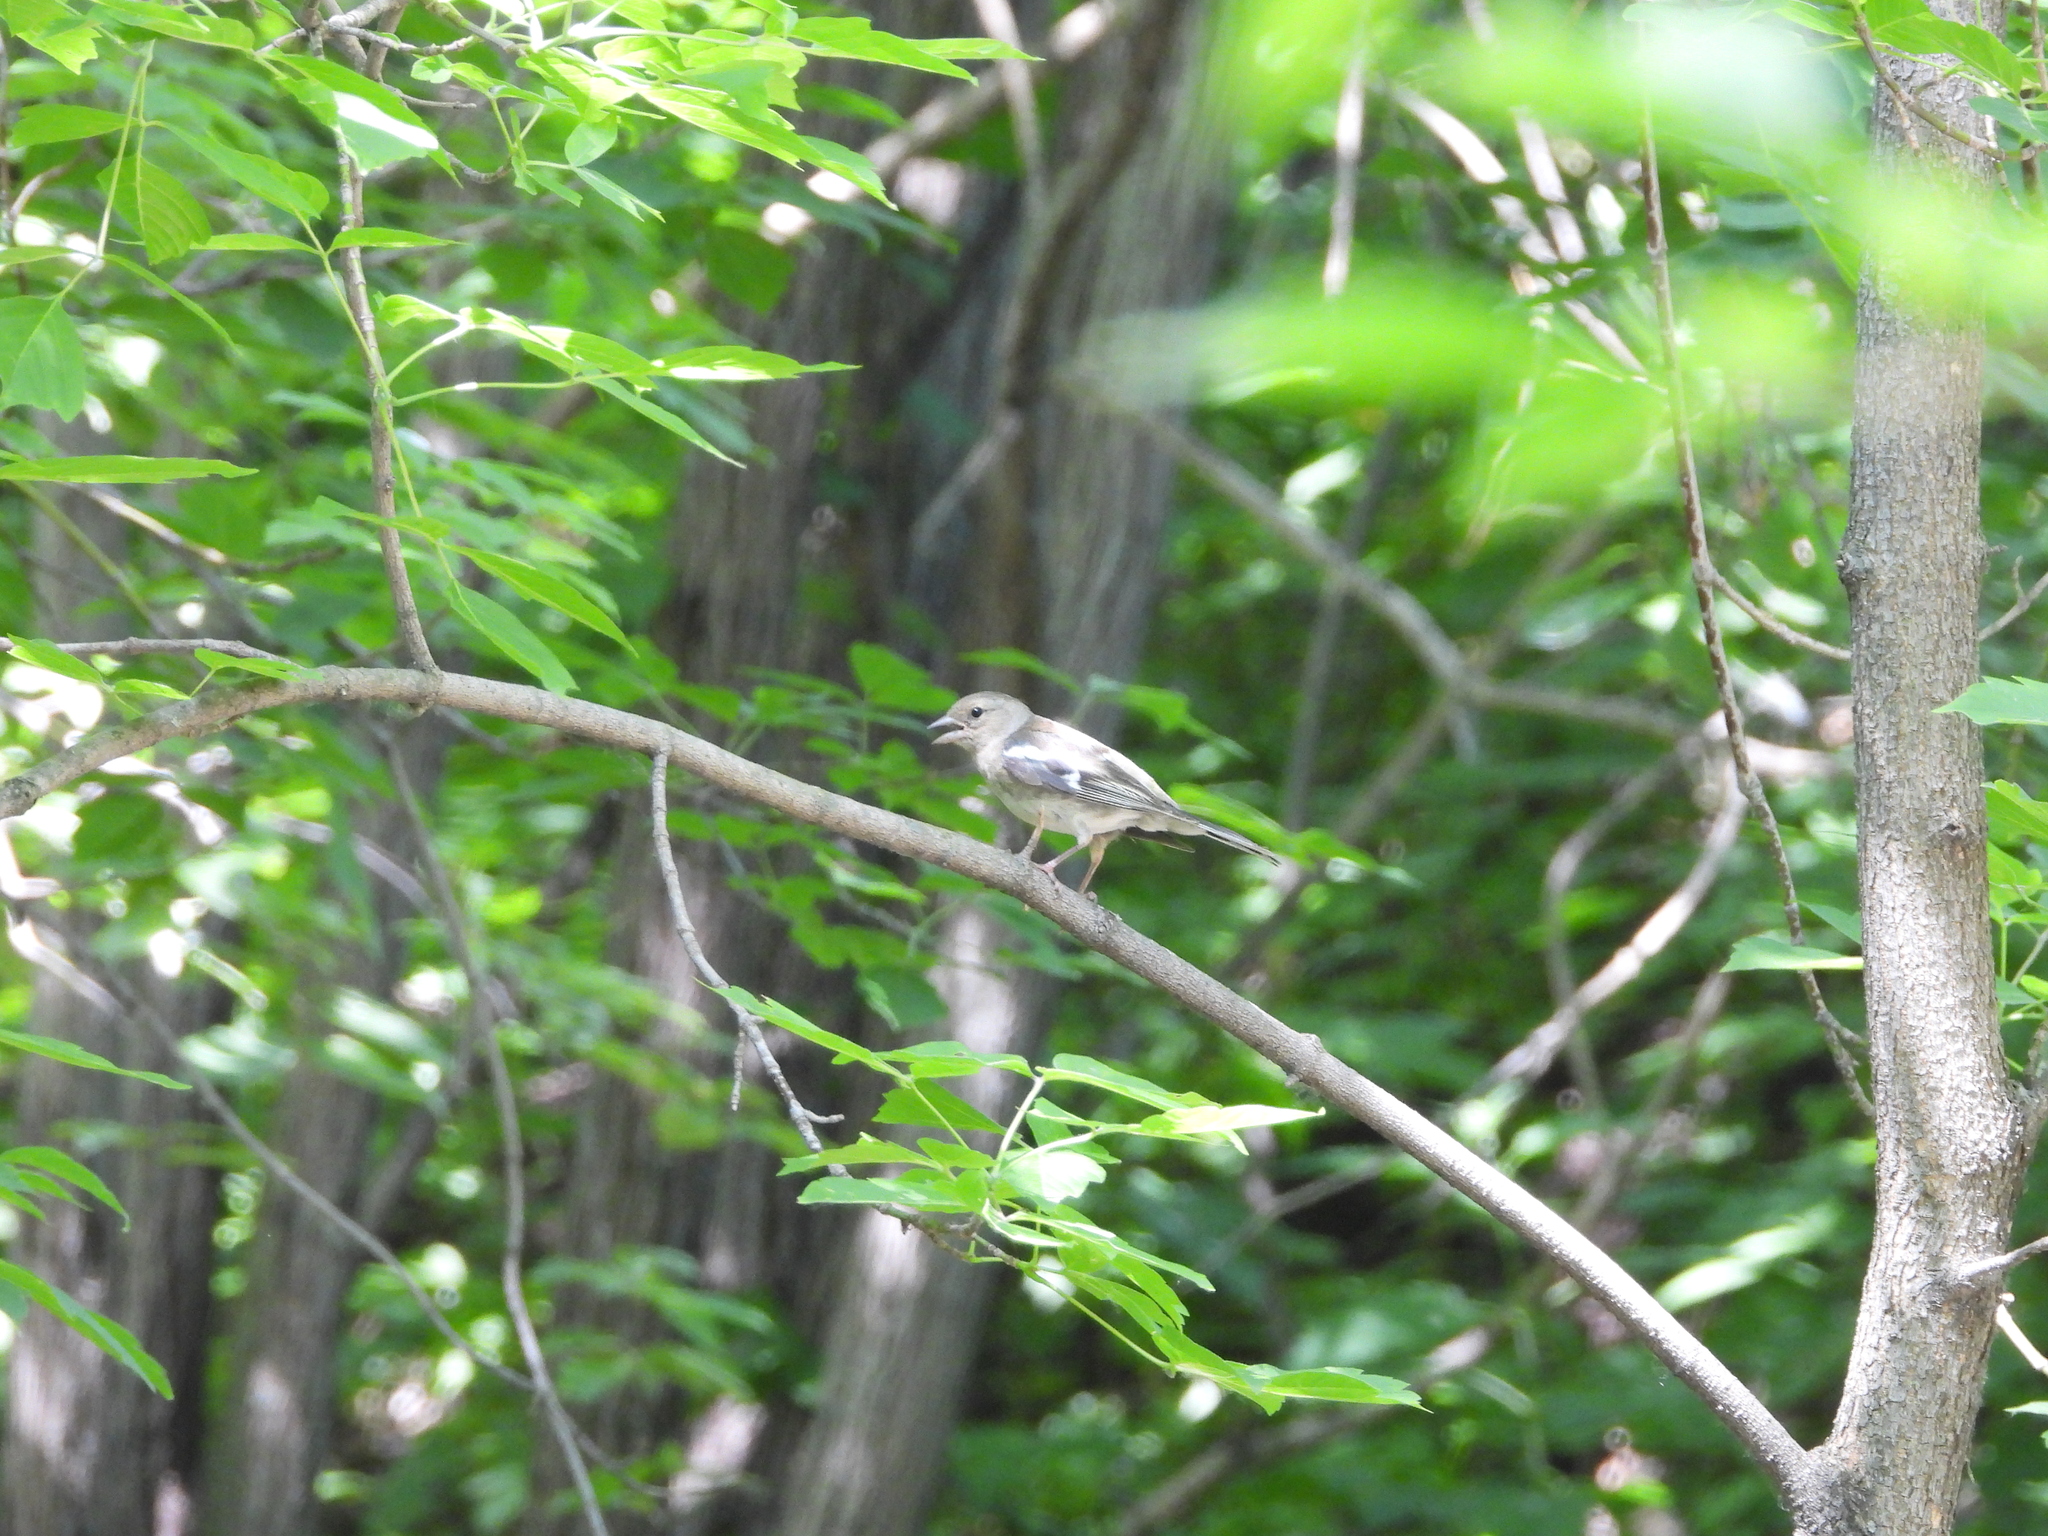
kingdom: Plantae
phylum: Tracheophyta
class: Liliopsida
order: Poales
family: Poaceae
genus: Chloris
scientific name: Chloris chloris
